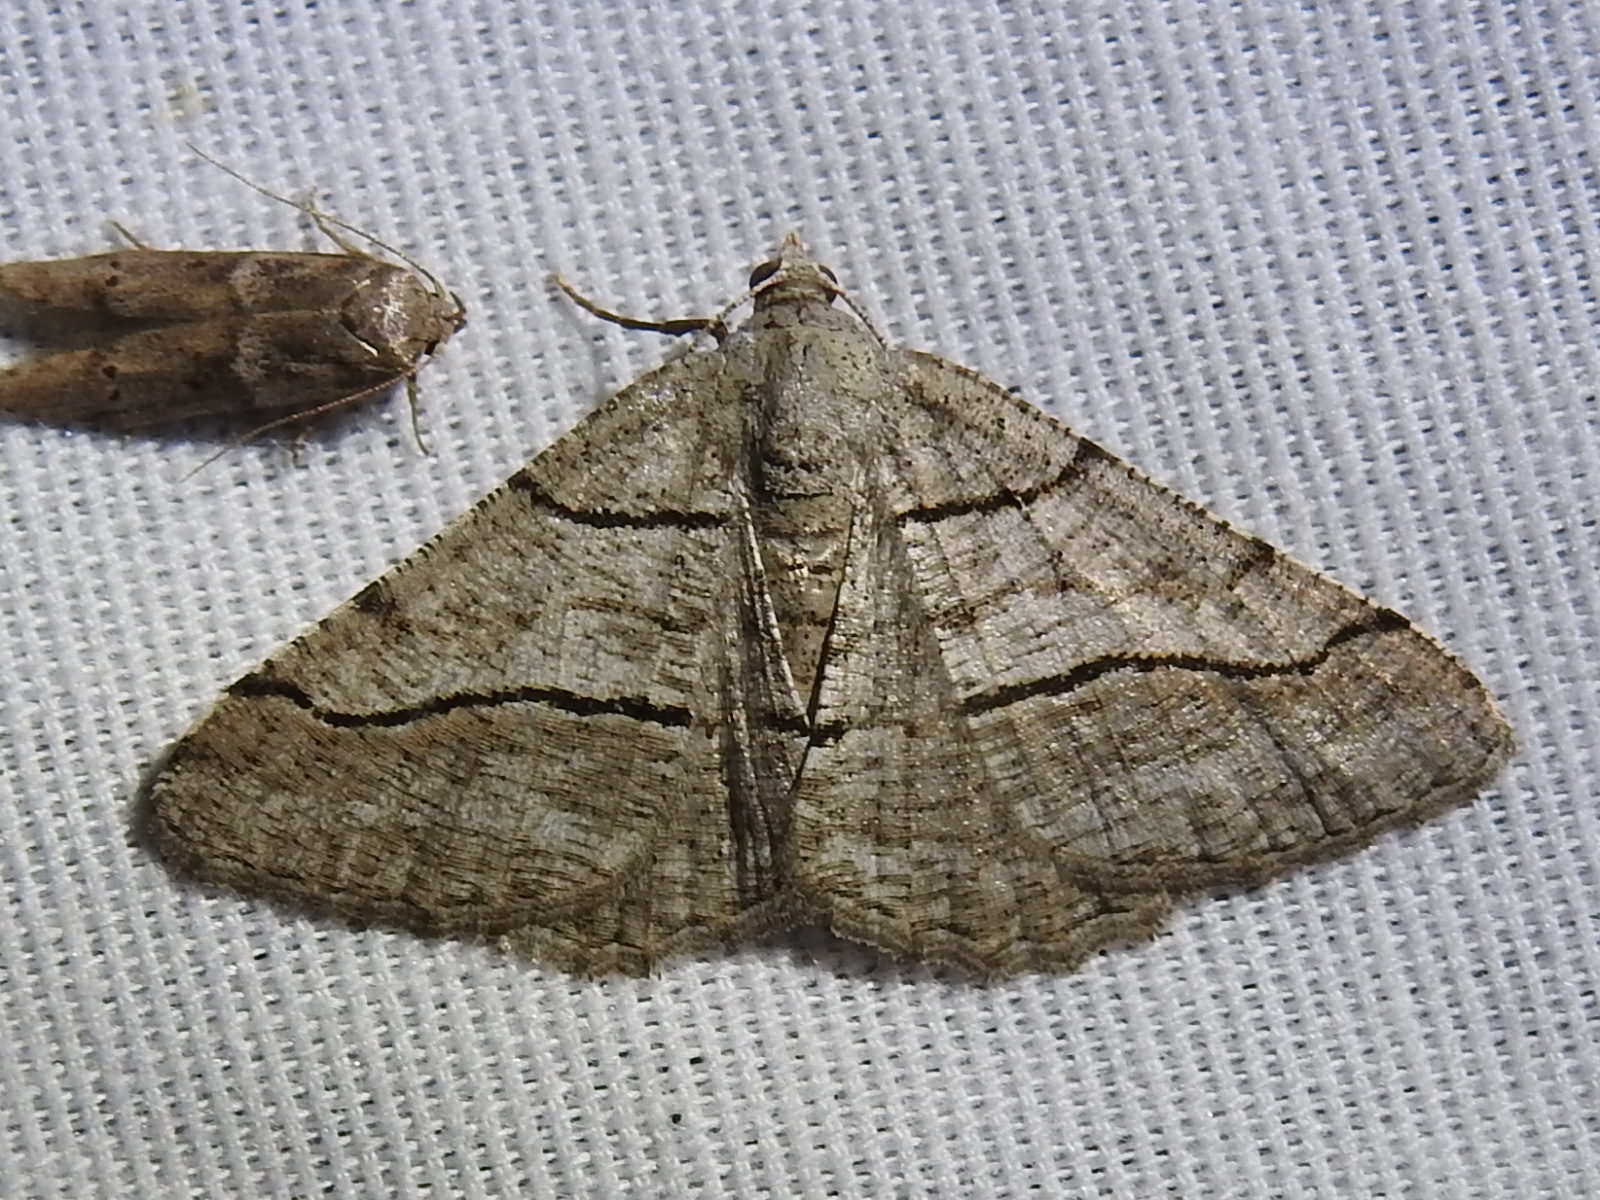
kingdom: Animalia
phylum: Arthropoda
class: Insecta
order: Lepidoptera
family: Geometridae
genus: Digrammia
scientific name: Digrammia continuata
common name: Curve-lined angle
